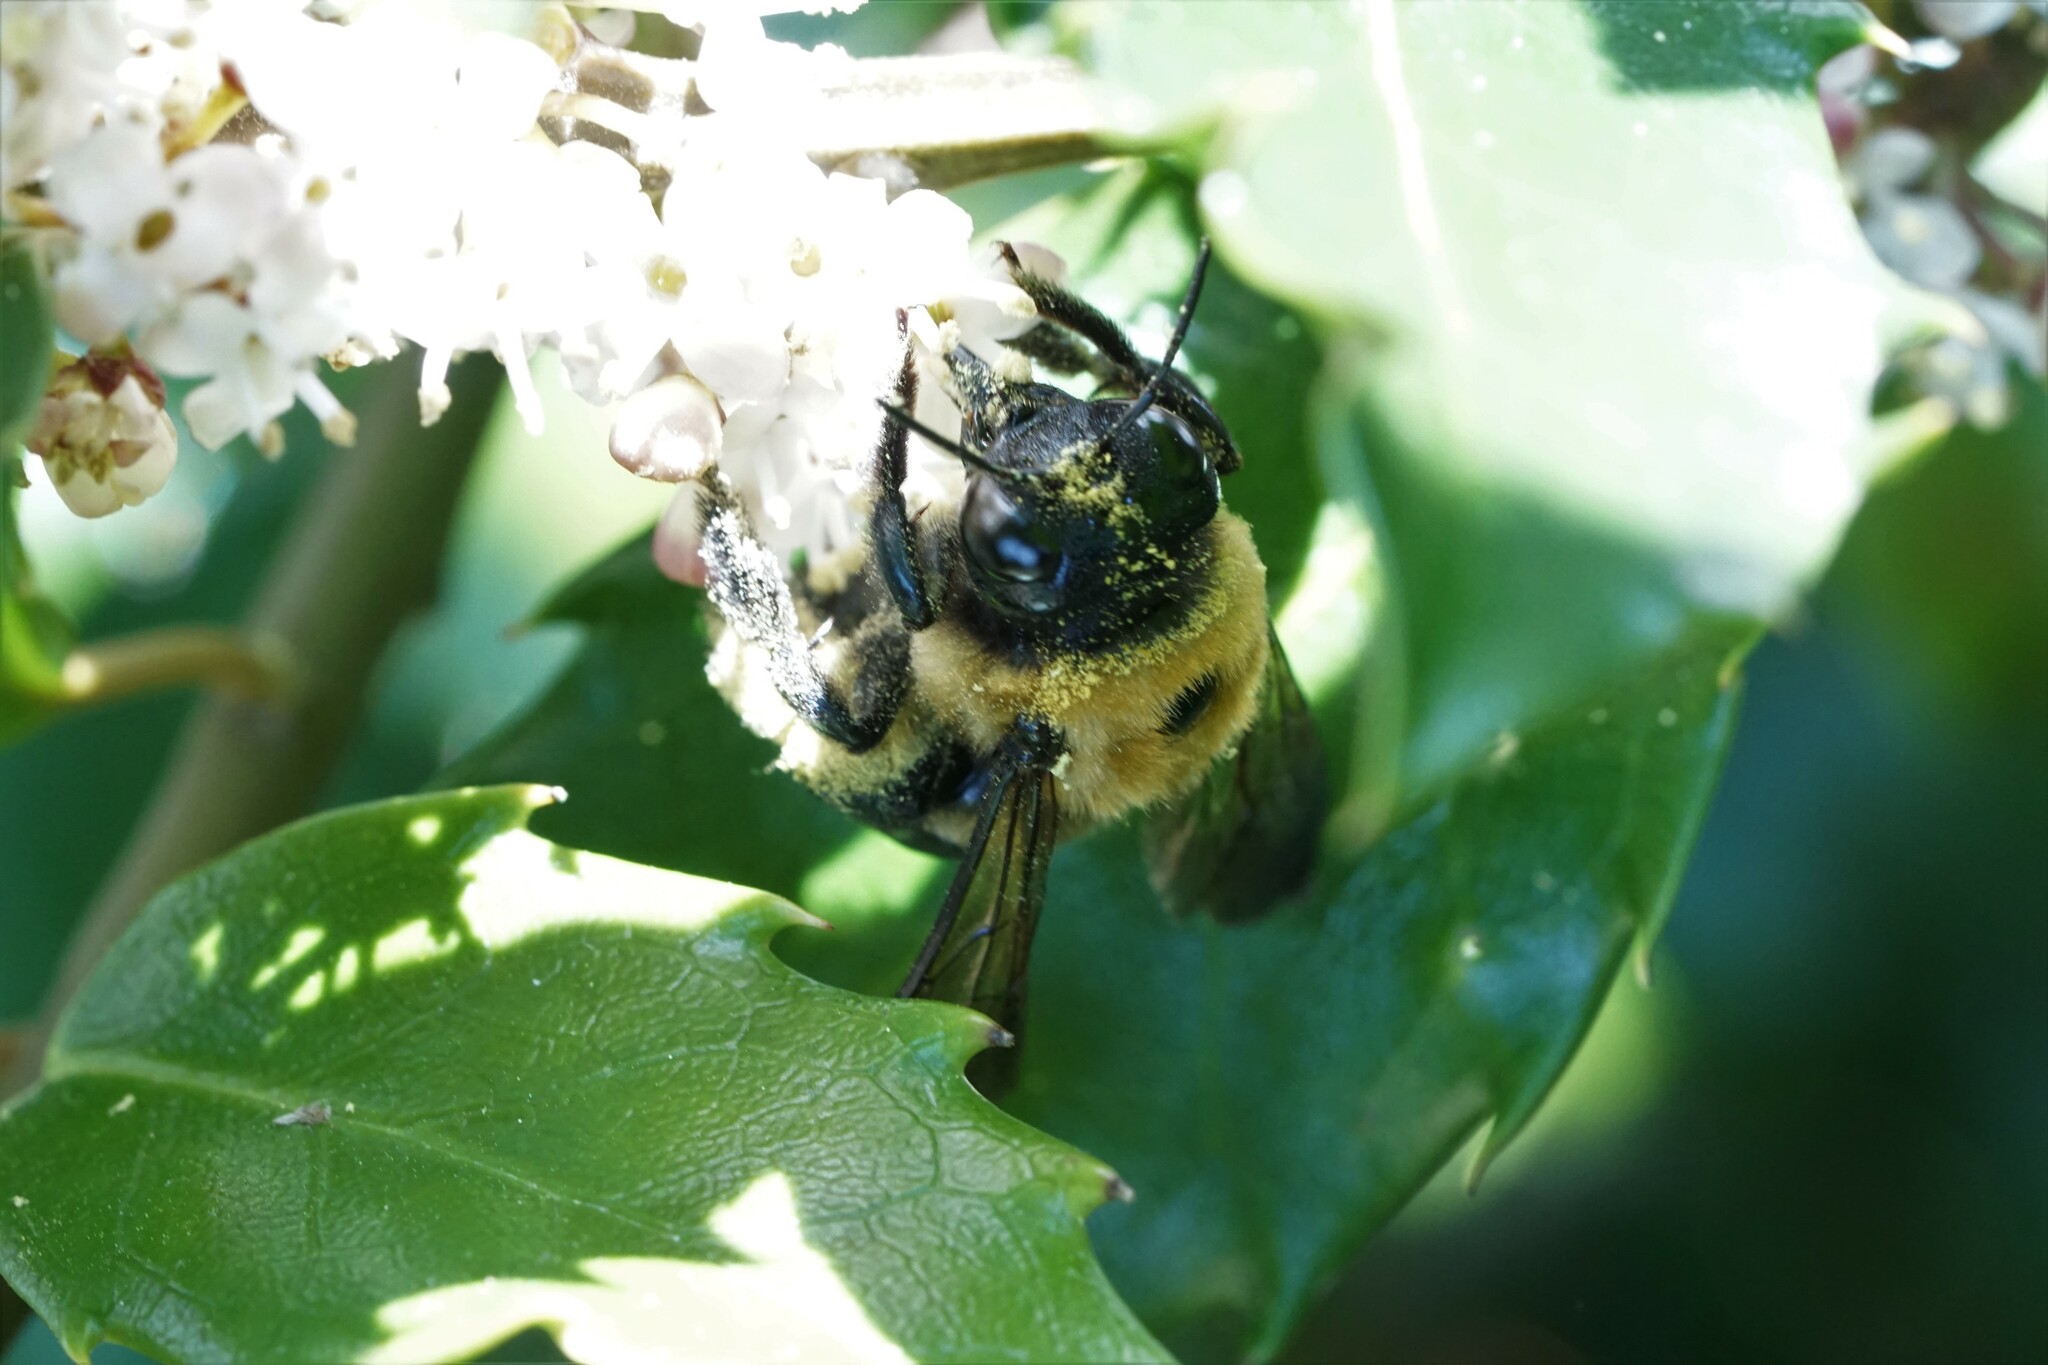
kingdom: Animalia
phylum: Arthropoda
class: Insecta
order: Hymenoptera
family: Apidae
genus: Xylocopa
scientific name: Xylocopa virginica
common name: Carpenter bee
